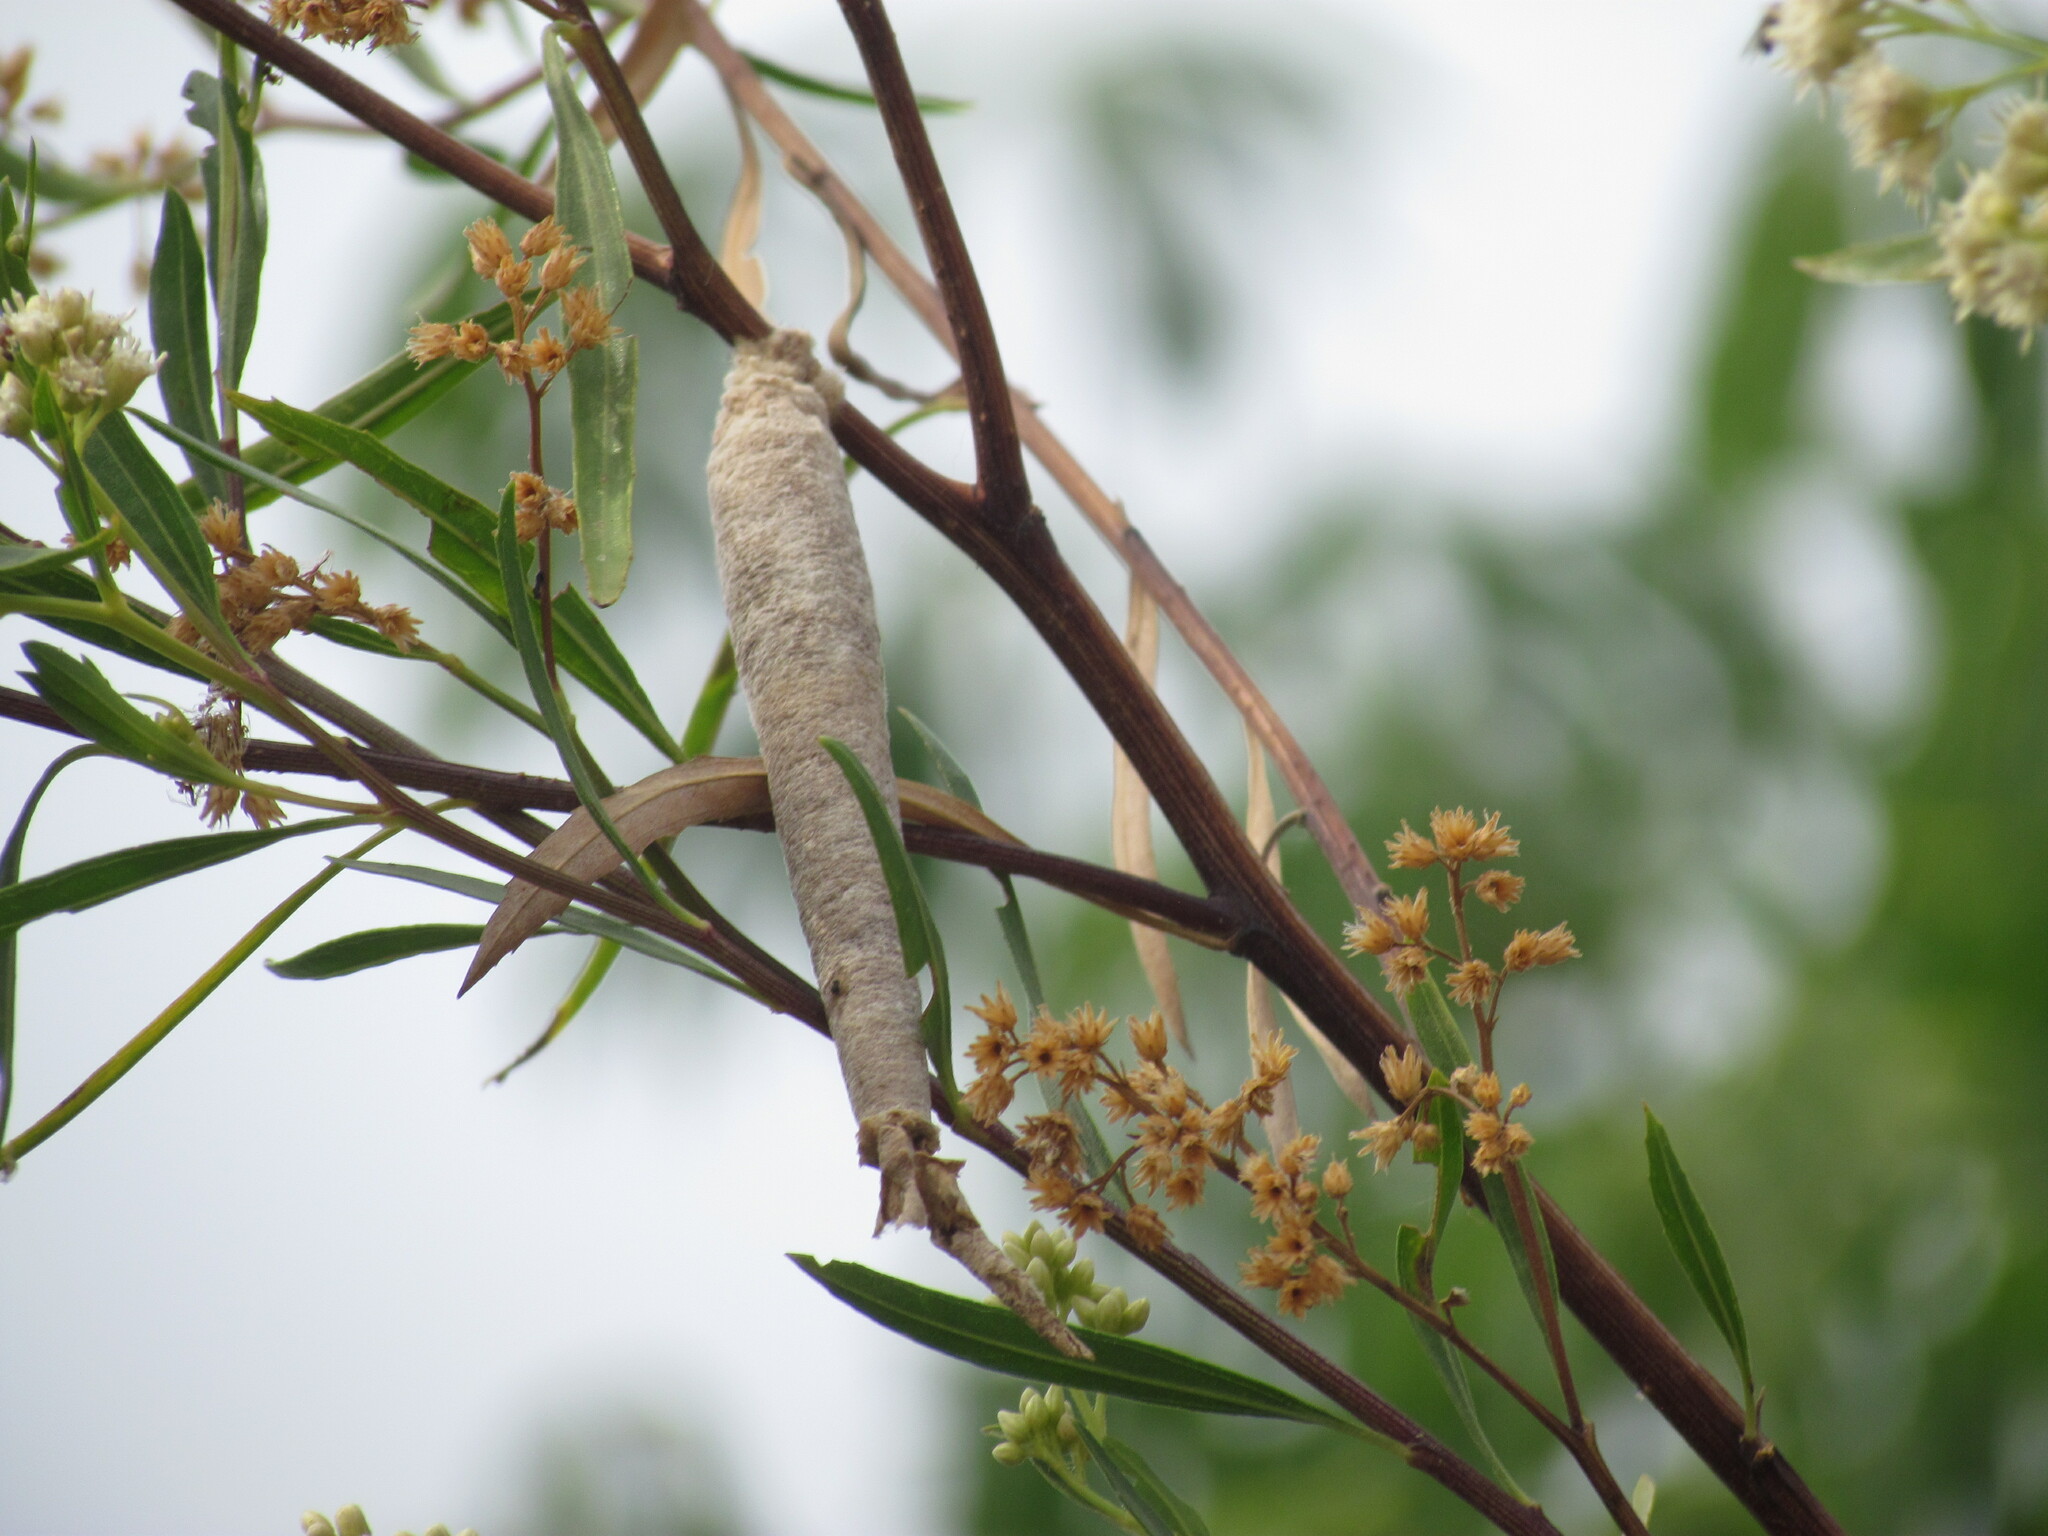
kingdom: Animalia
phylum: Arthropoda
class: Insecta
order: Lepidoptera
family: Psychidae
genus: Oiketicus
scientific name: Oiketicus geyeri
